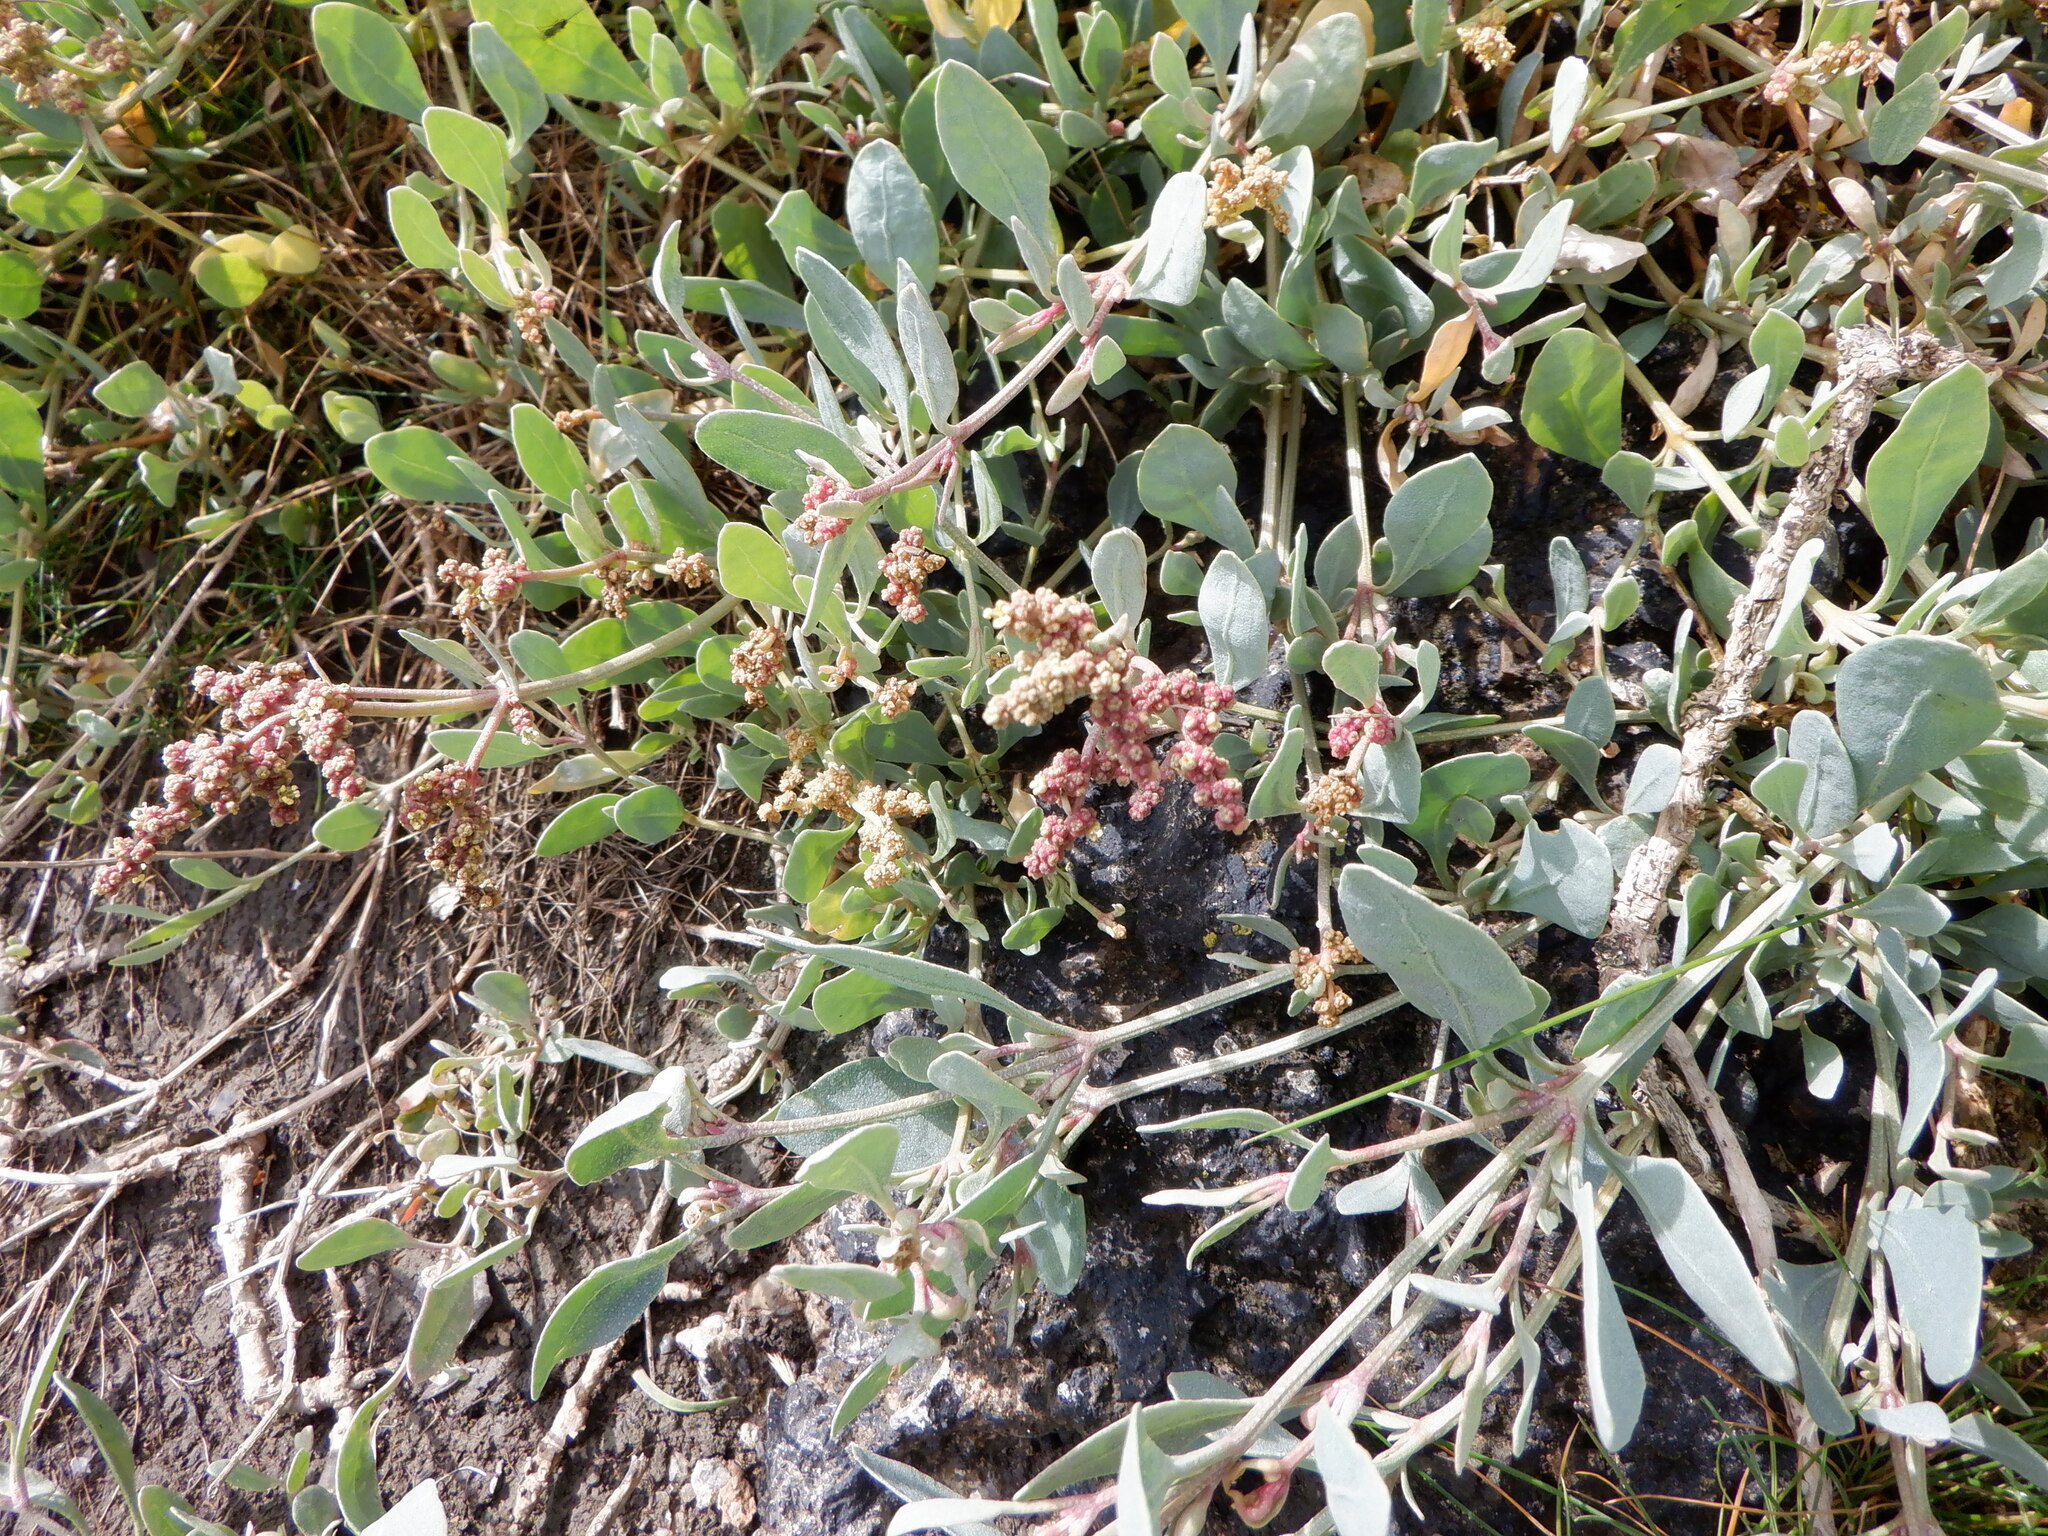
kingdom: Plantae
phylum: Tracheophyta
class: Magnoliopsida
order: Caryophyllales
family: Amaranthaceae
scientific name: Amaranthaceae
